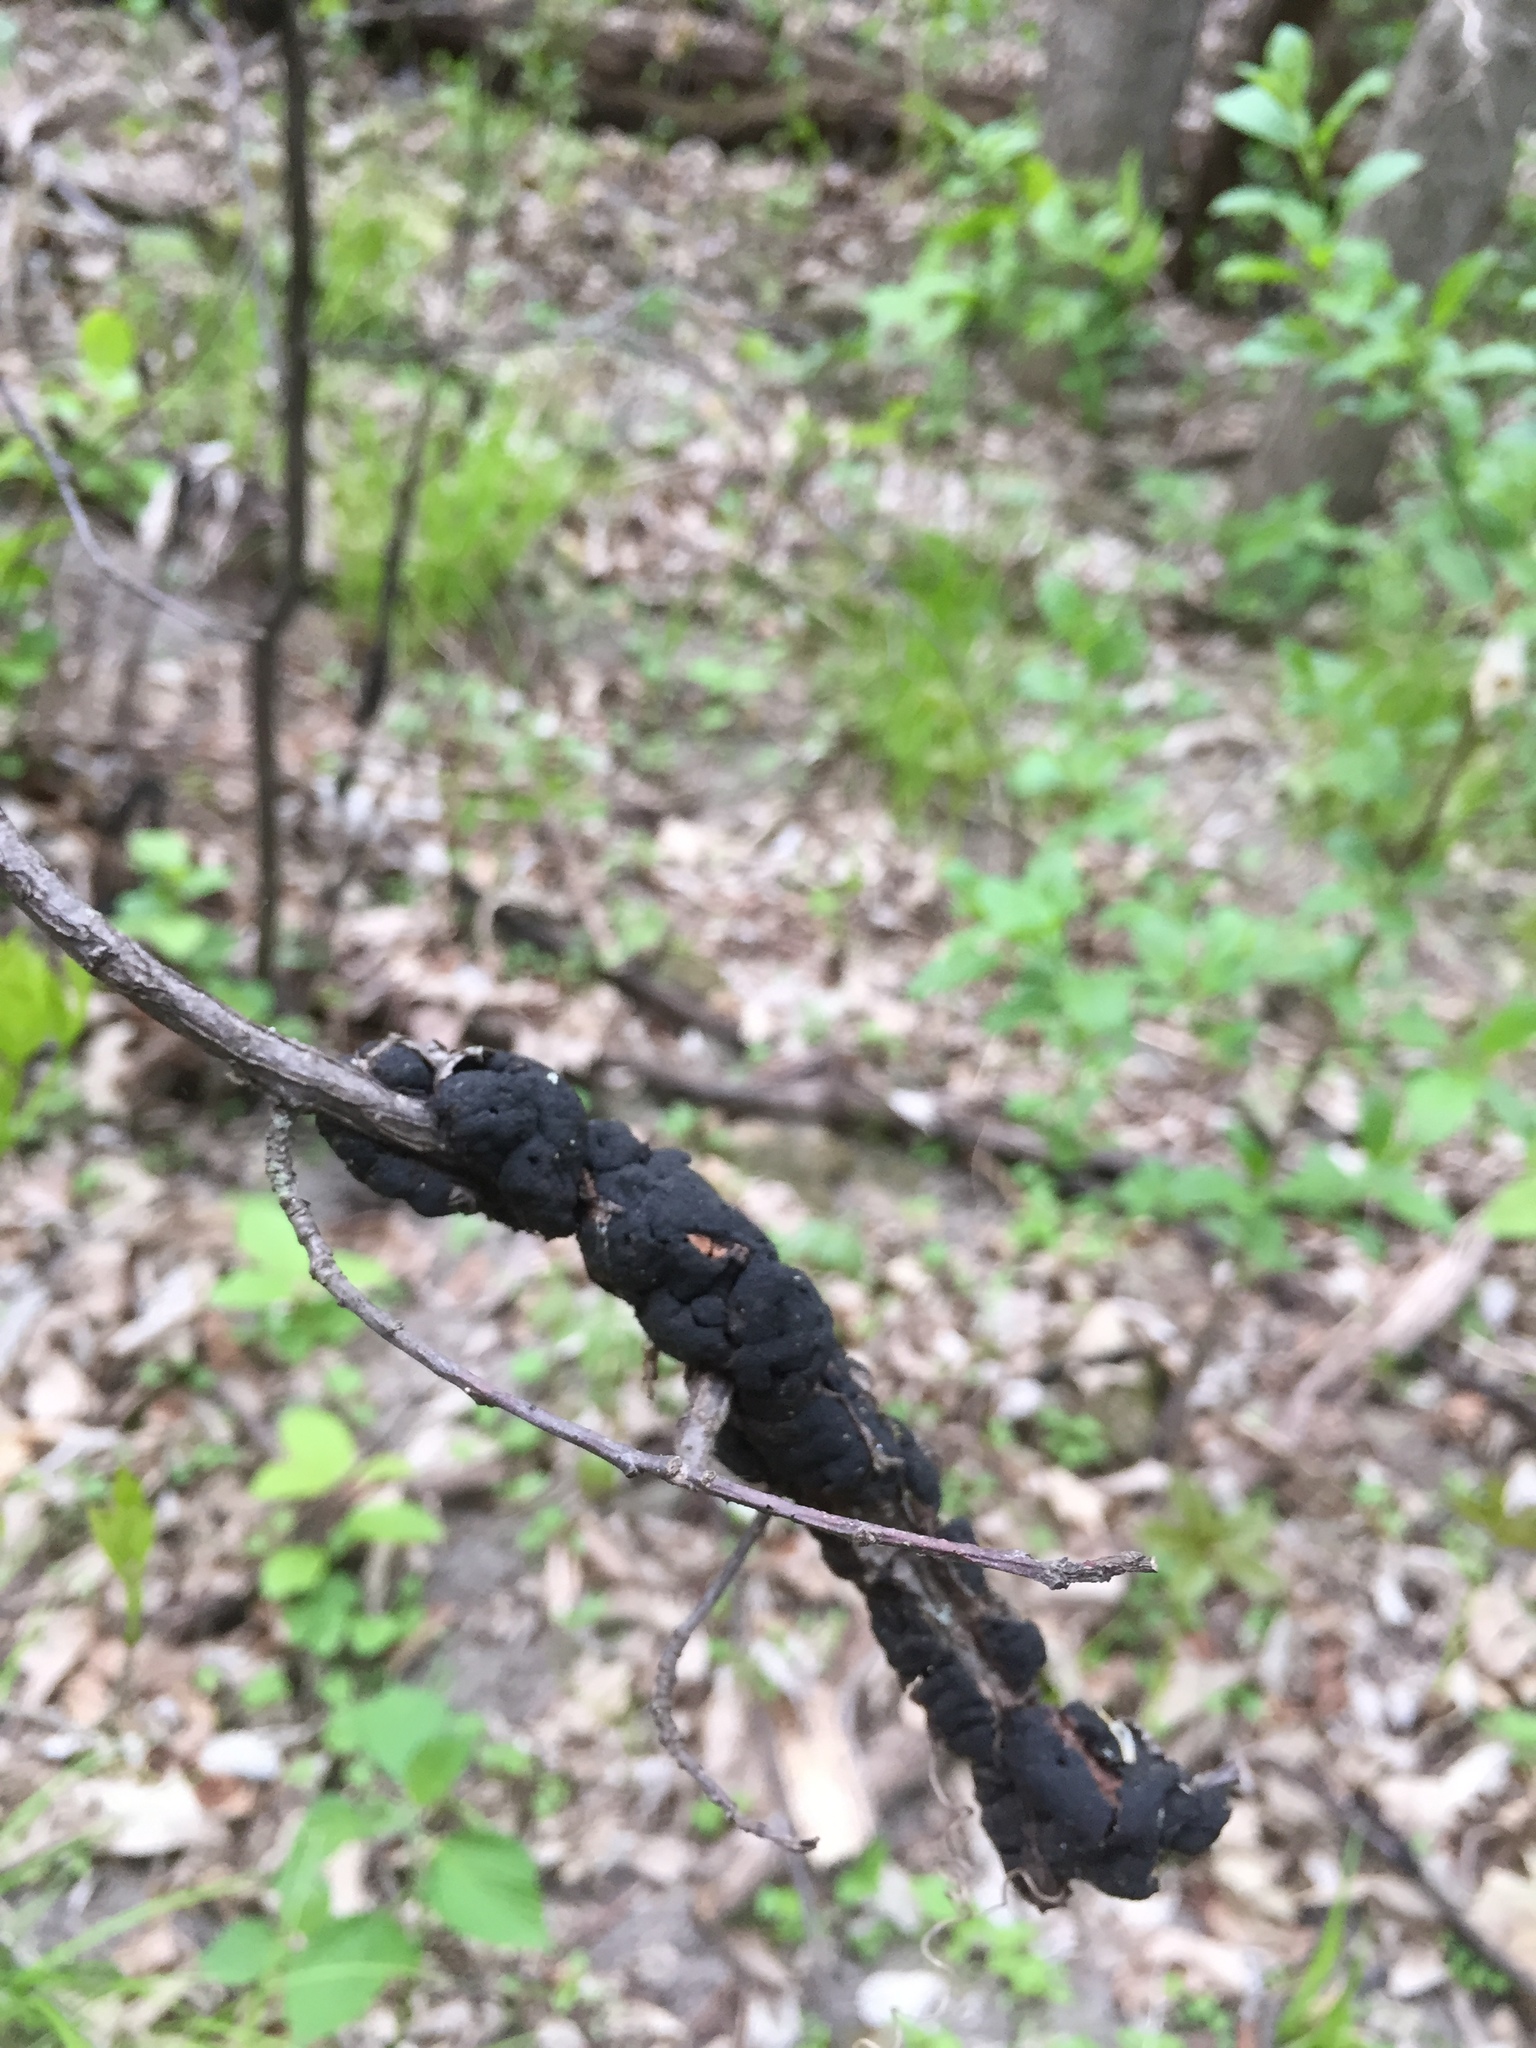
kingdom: Fungi
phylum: Ascomycota
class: Dothideomycetes
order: Venturiales
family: Venturiaceae
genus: Apiosporina
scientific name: Apiosporina morbosa
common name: Black knot
